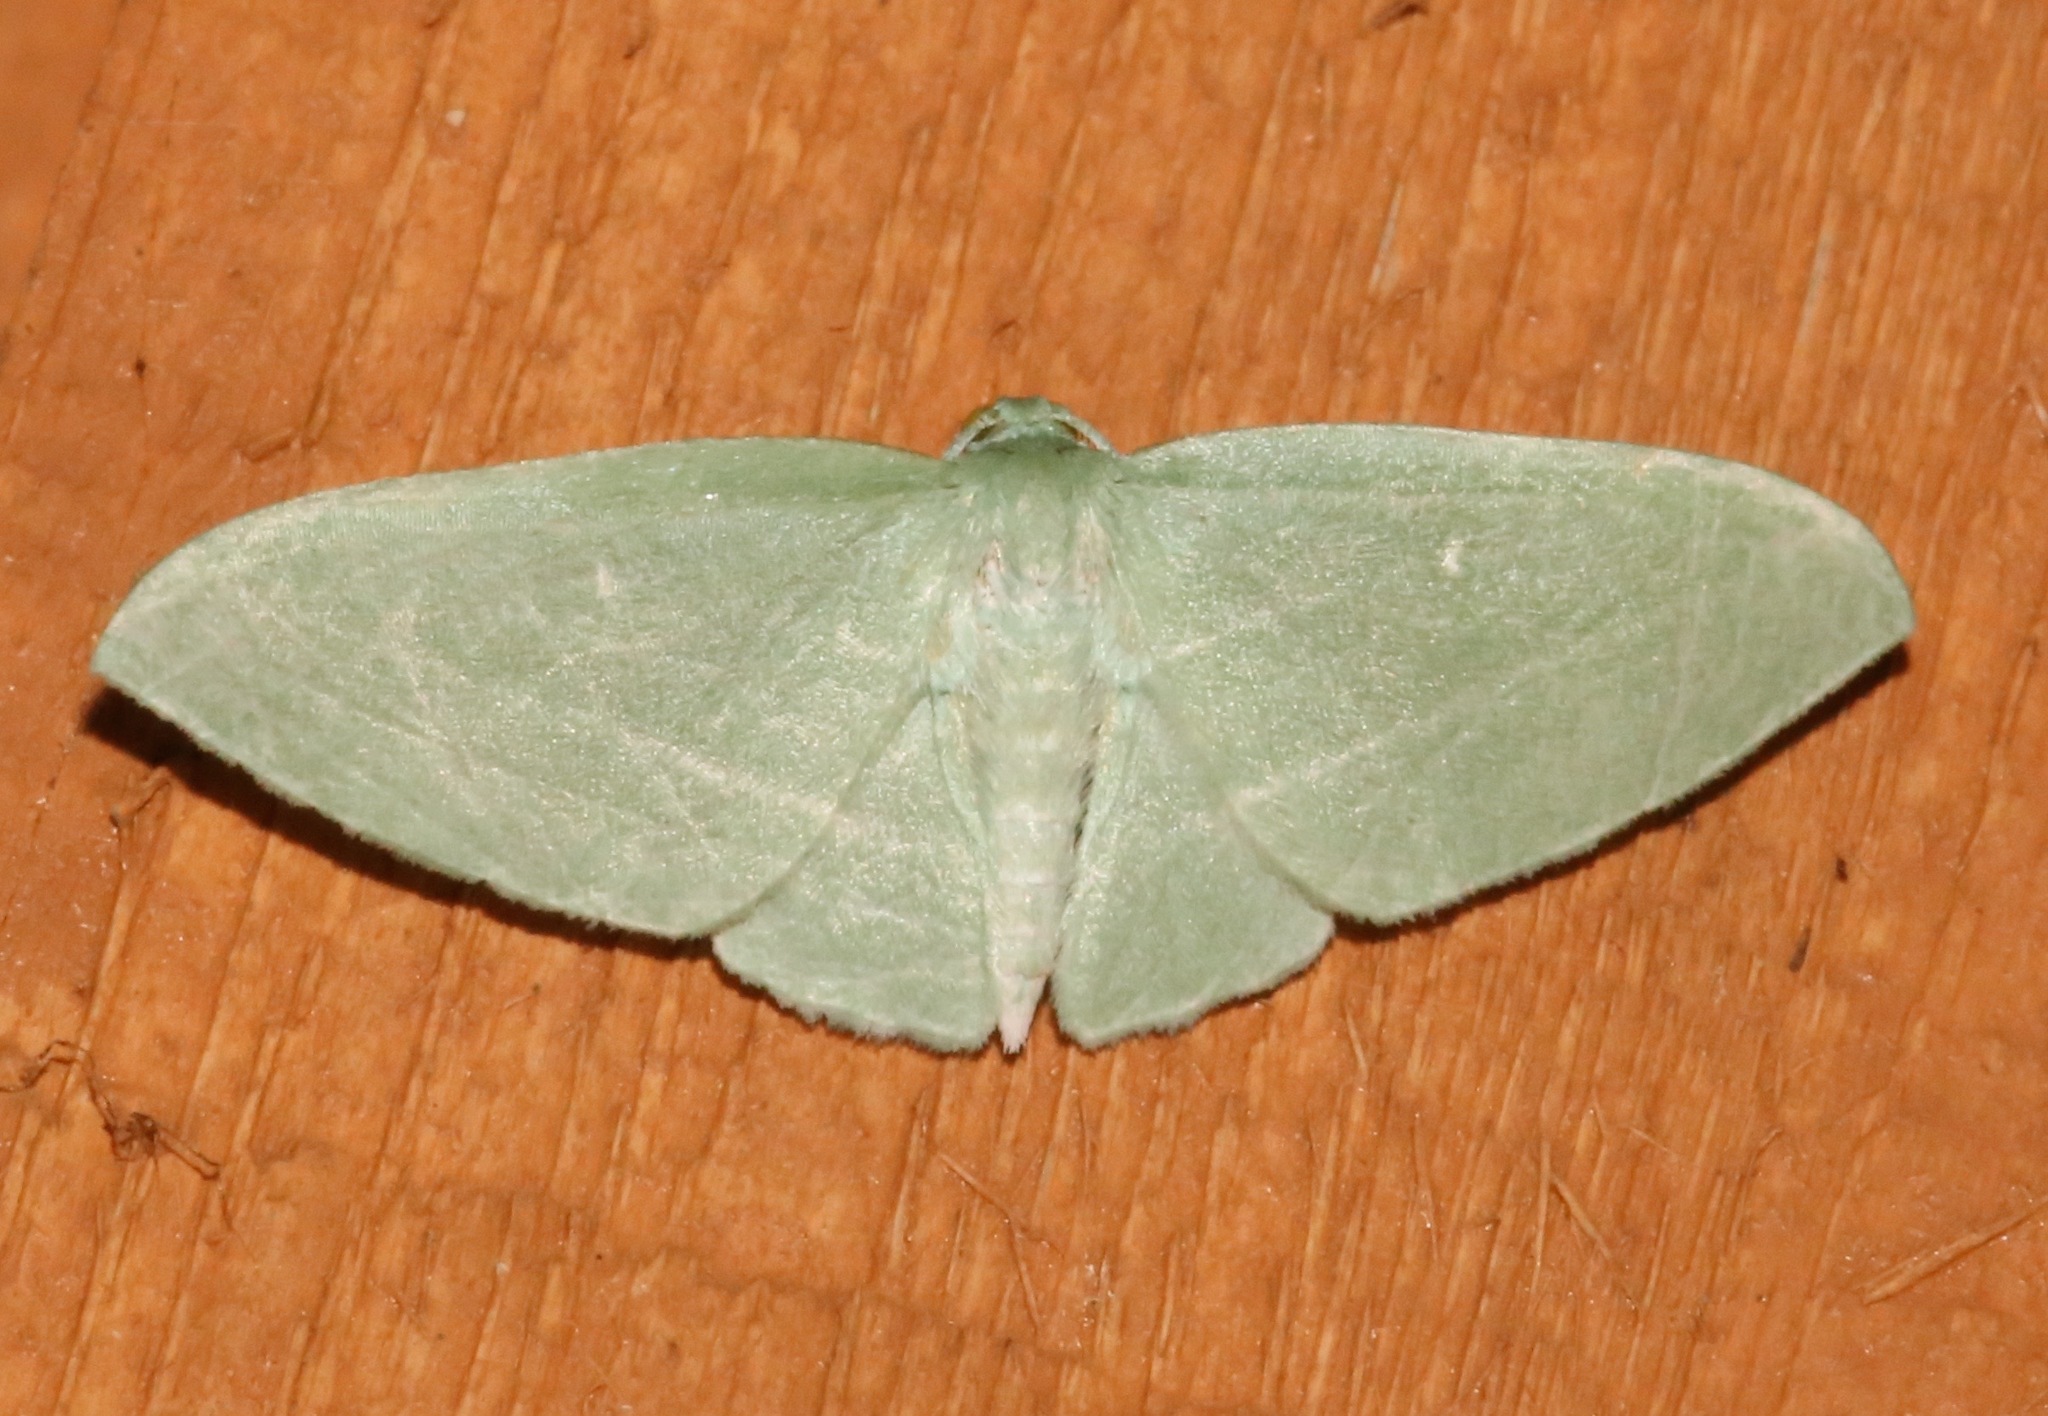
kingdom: Animalia
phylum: Arthropoda
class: Insecta
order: Lepidoptera
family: Geometridae
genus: Dyspteris
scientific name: Dyspteris abortivaria
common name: Bad-wing
